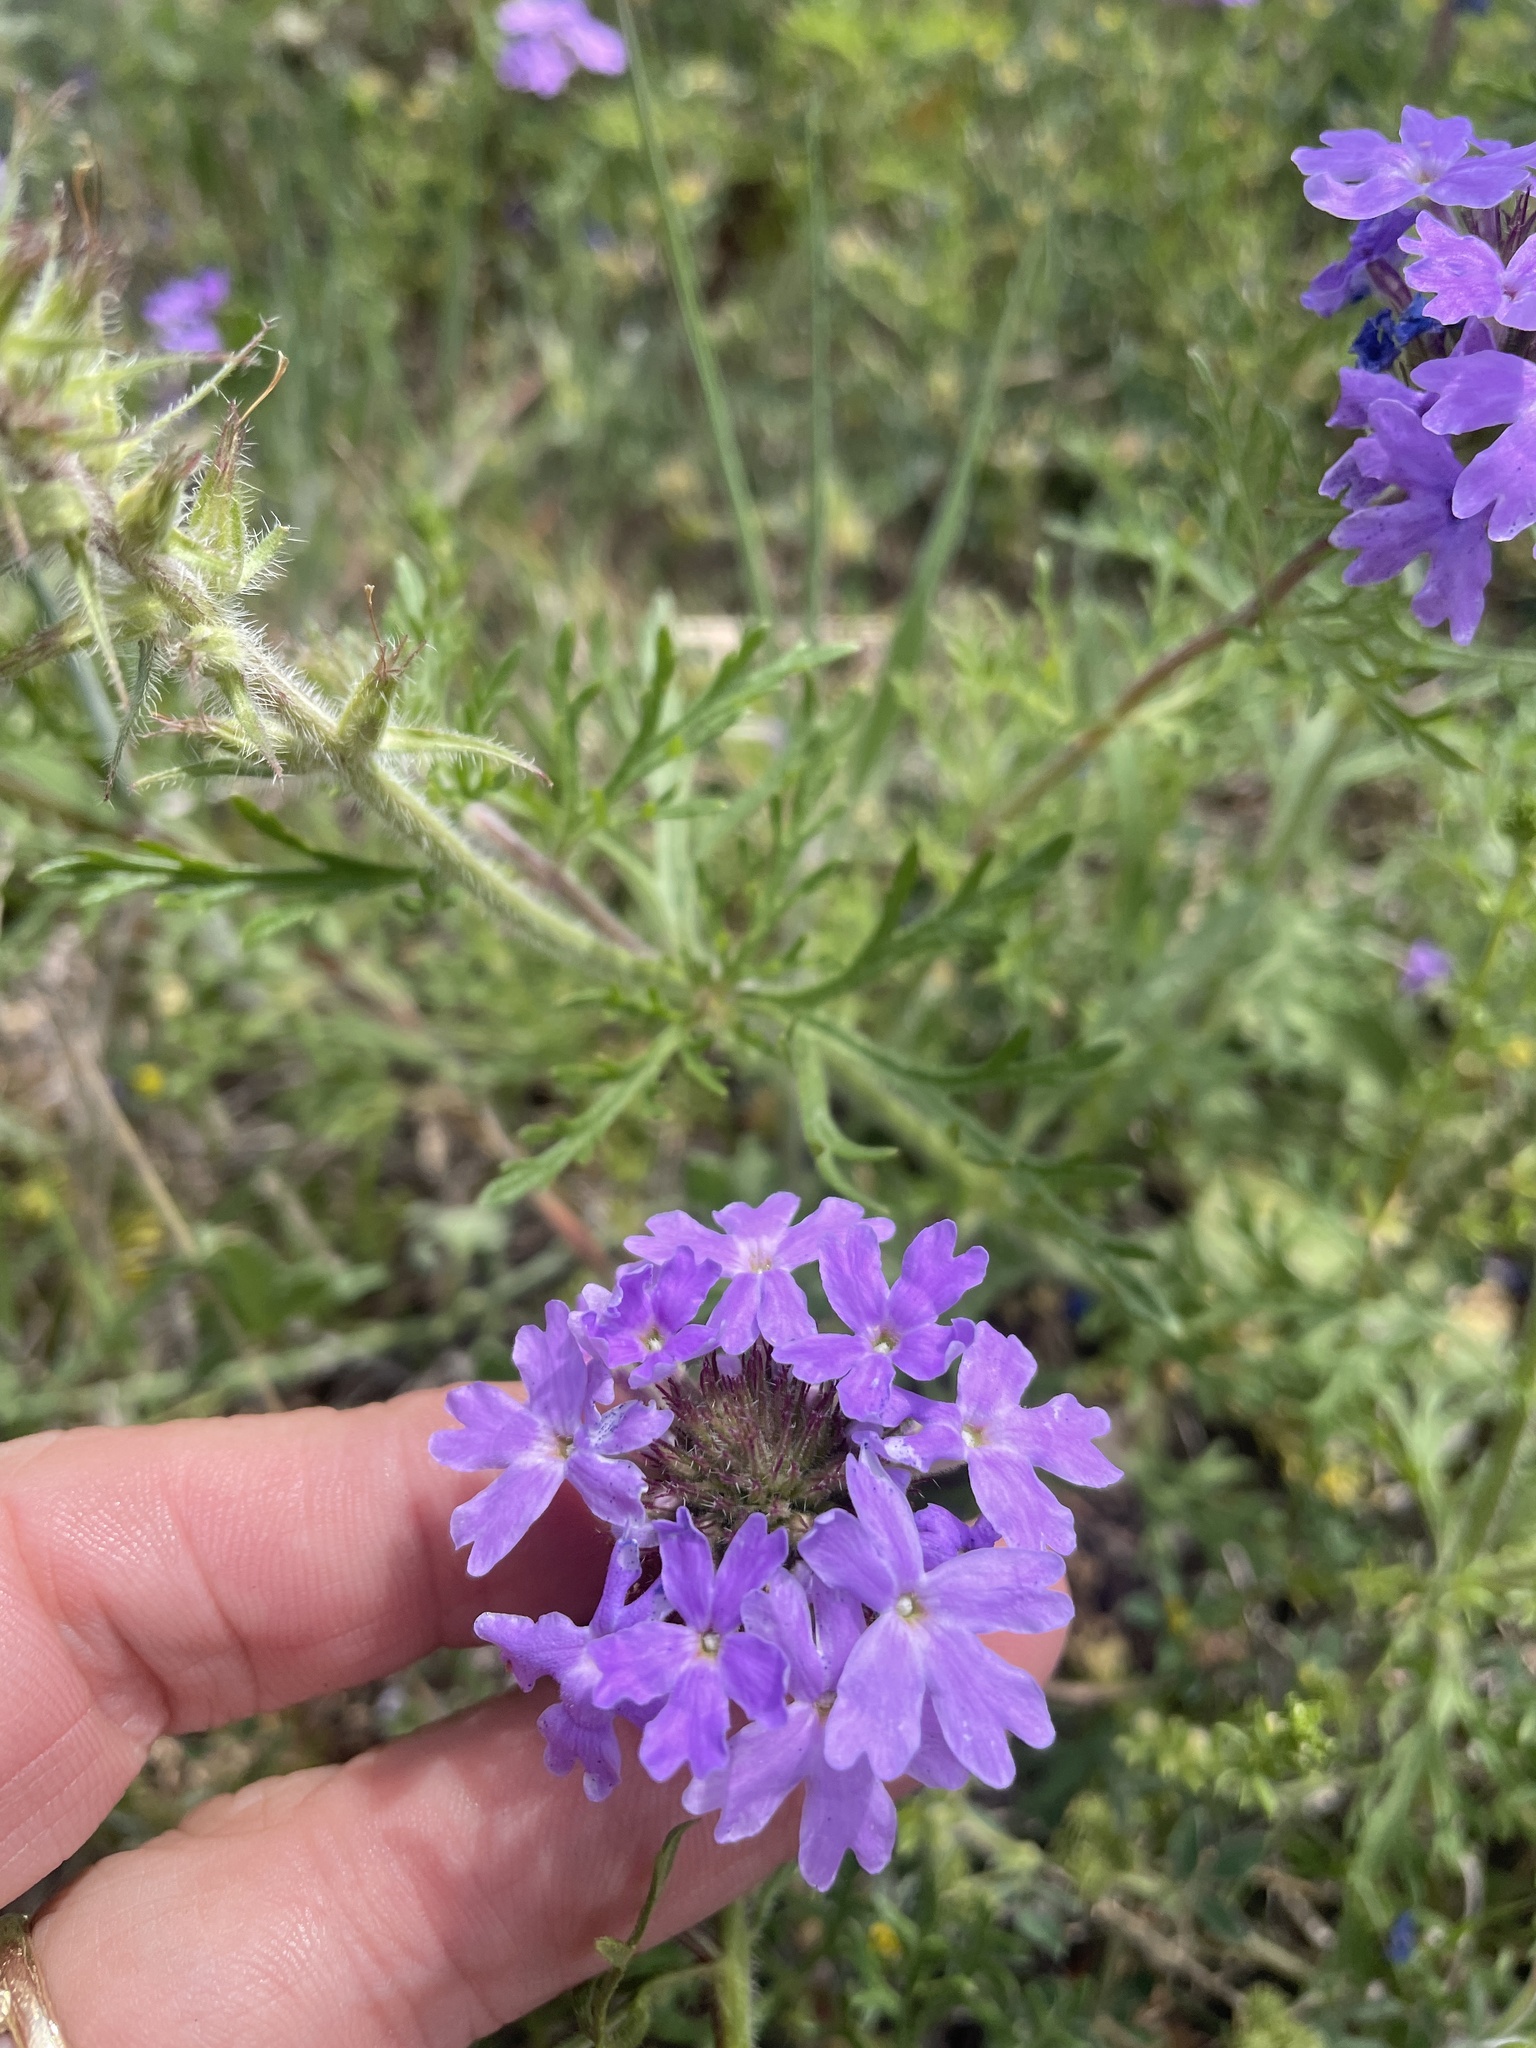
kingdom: Plantae
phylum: Tracheophyta
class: Magnoliopsida
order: Lamiales
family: Verbenaceae
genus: Verbena
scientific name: Verbena bipinnatifida
